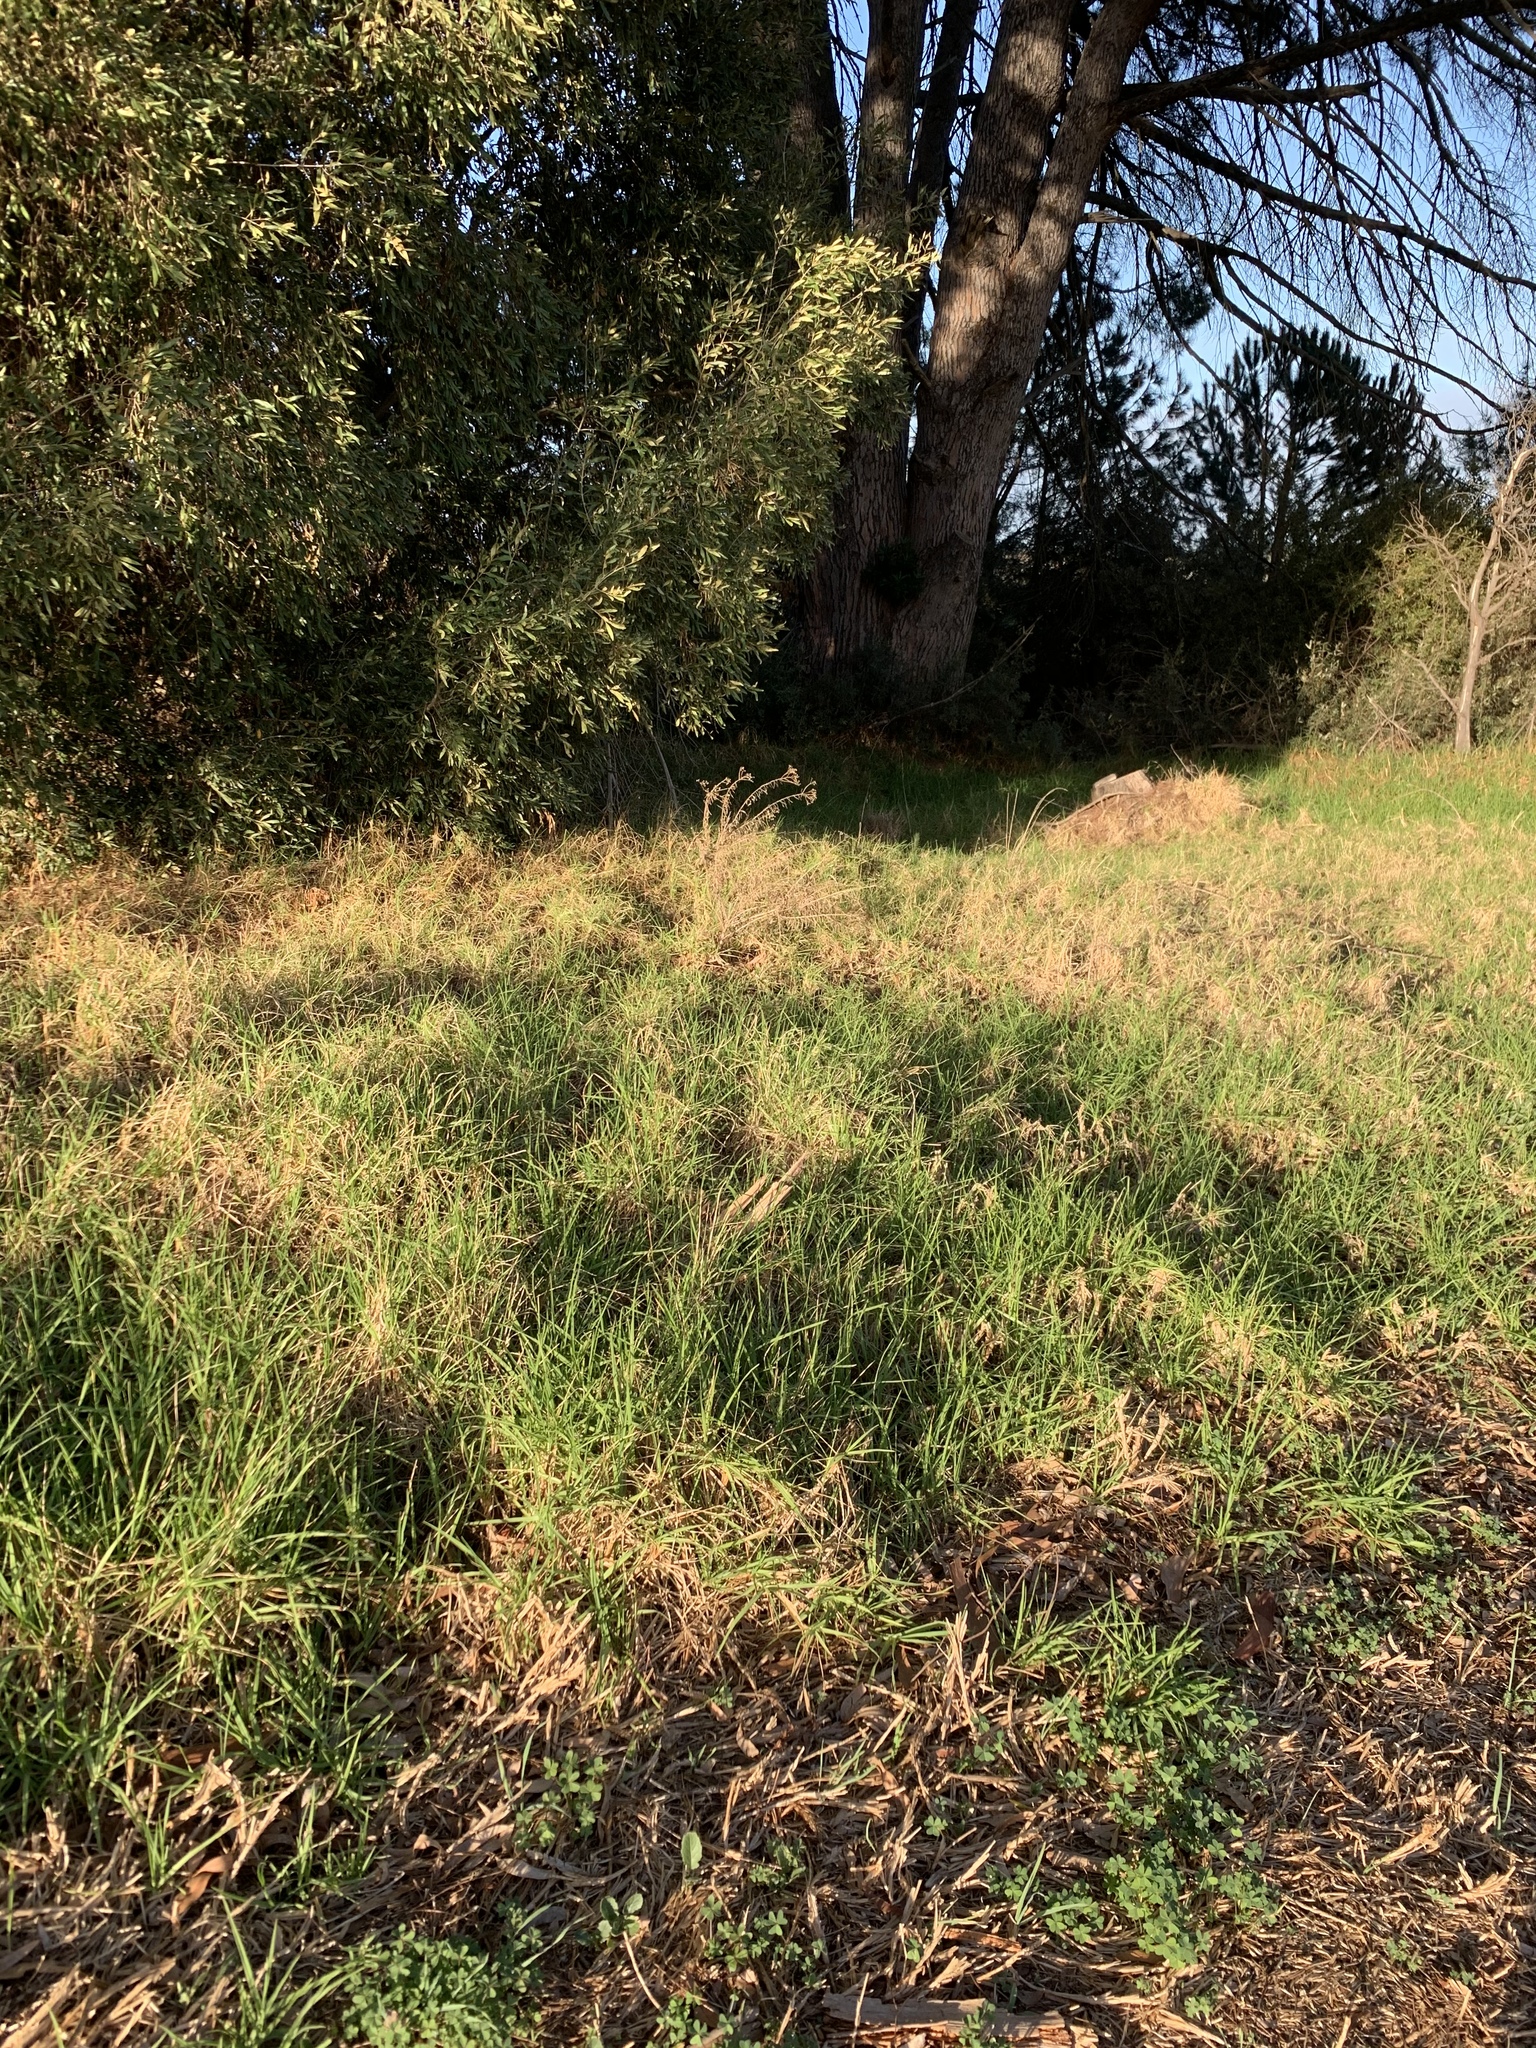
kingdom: Plantae
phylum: Tracheophyta
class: Liliopsida
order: Poales
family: Poaceae
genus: Cenchrus
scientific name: Cenchrus clandestinus
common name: Kikuyugrass
